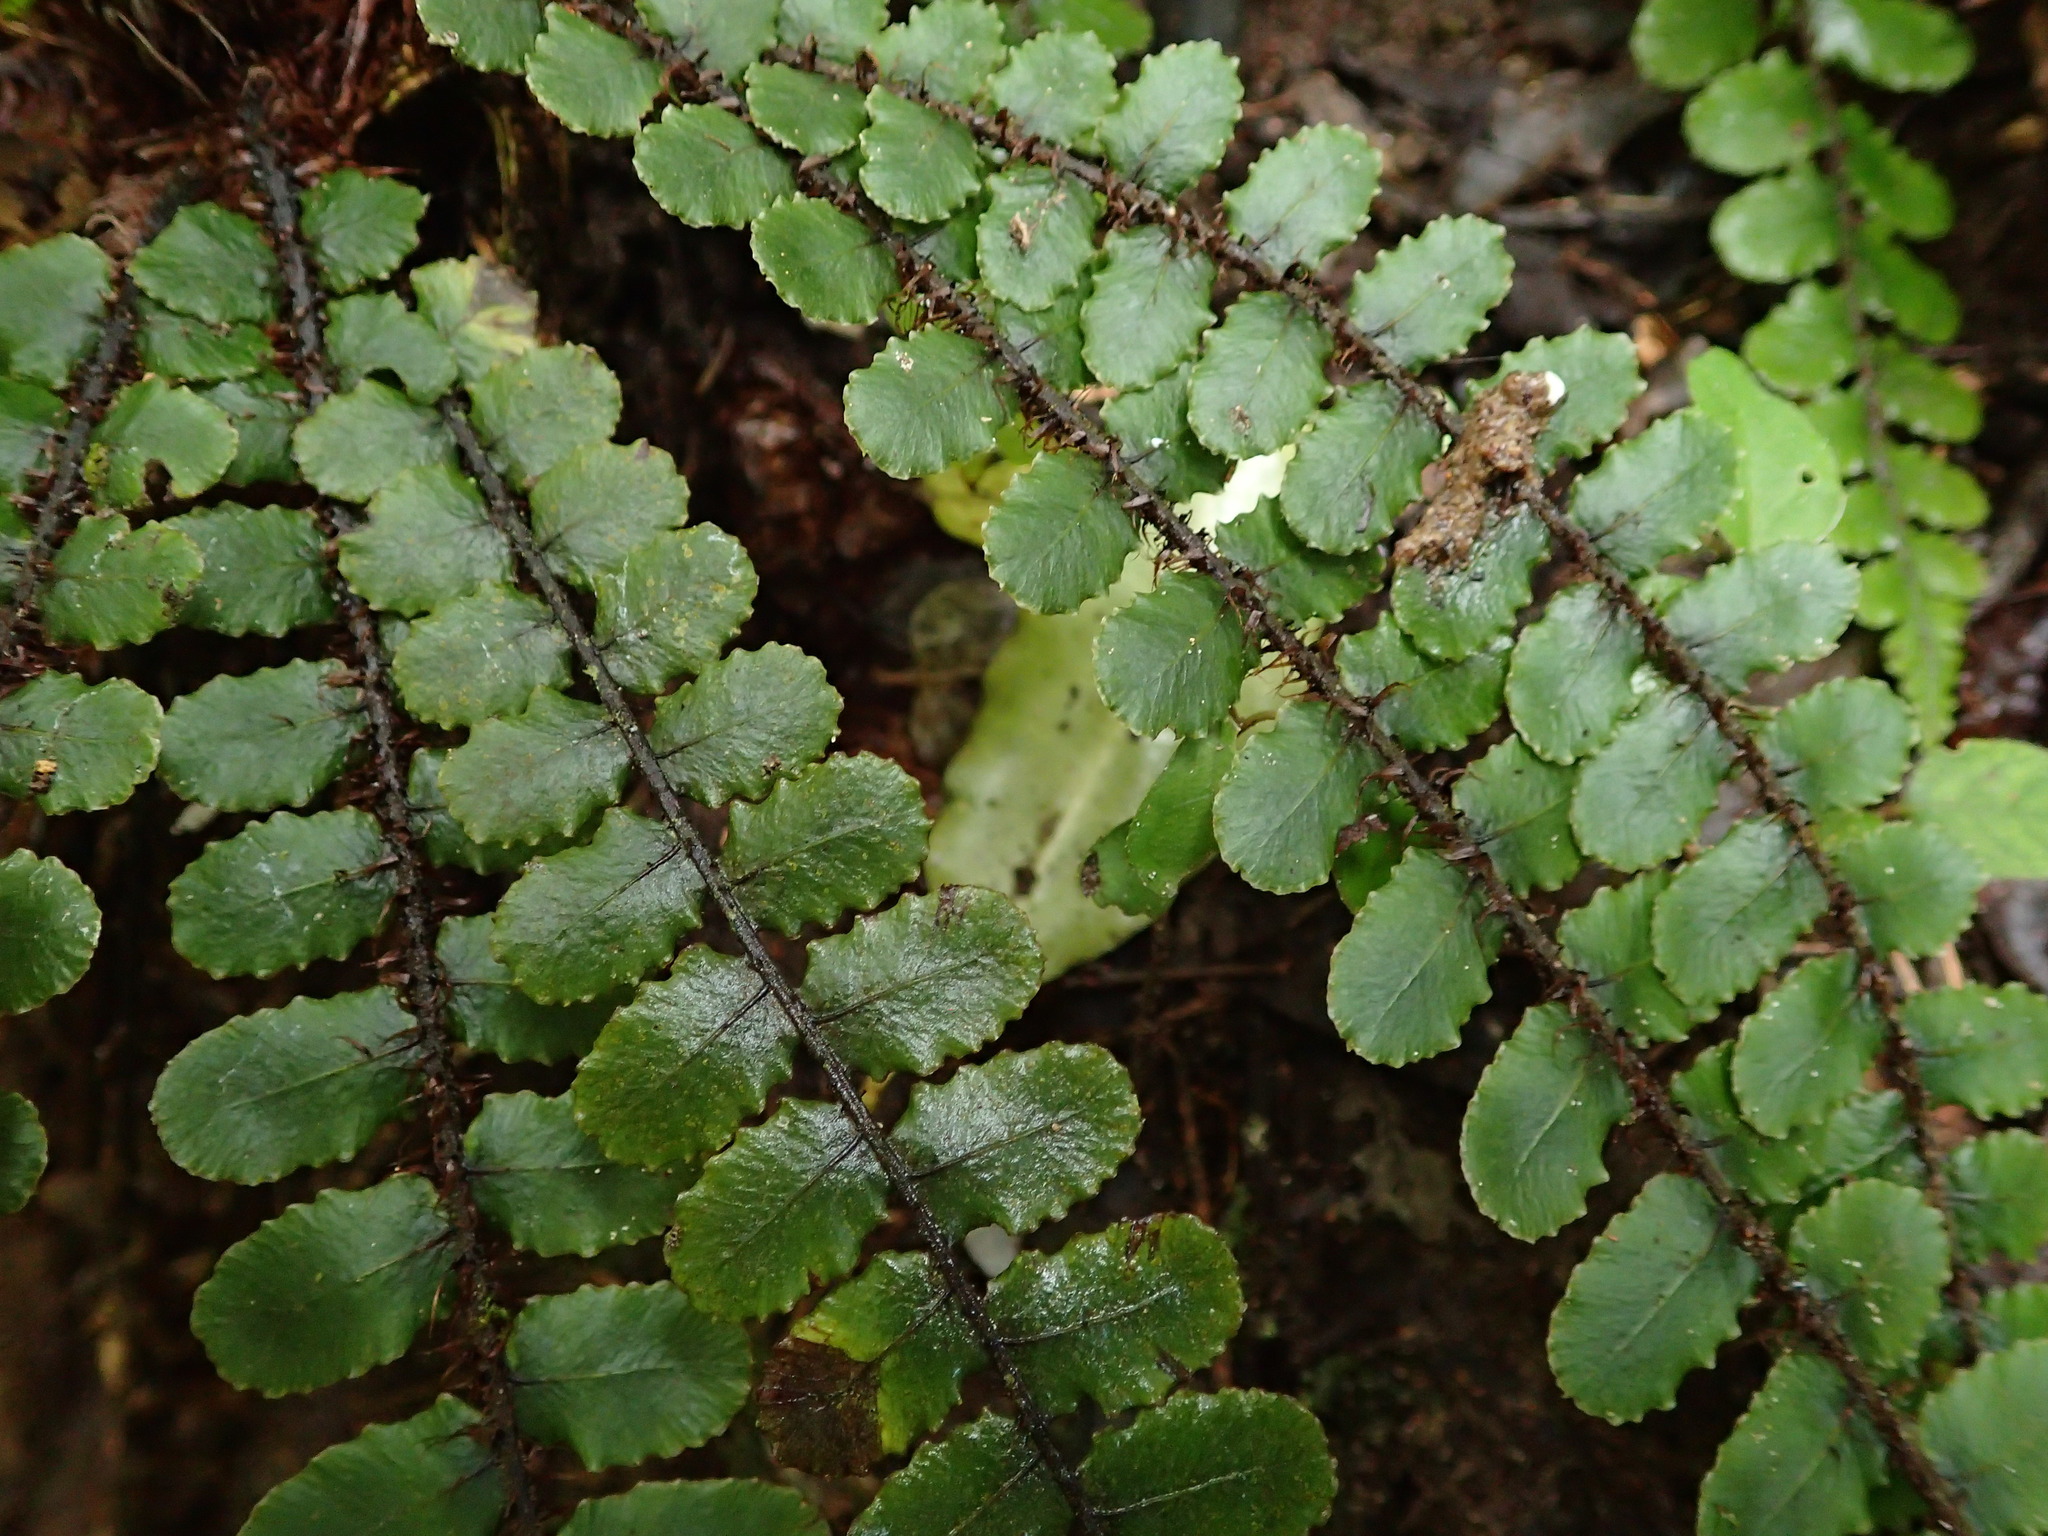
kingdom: Plantae
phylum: Tracheophyta
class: Polypodiopsida
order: Polypodiales
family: Blechnaceae
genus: Cranfillia
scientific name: Cranfillia fluviatilis
